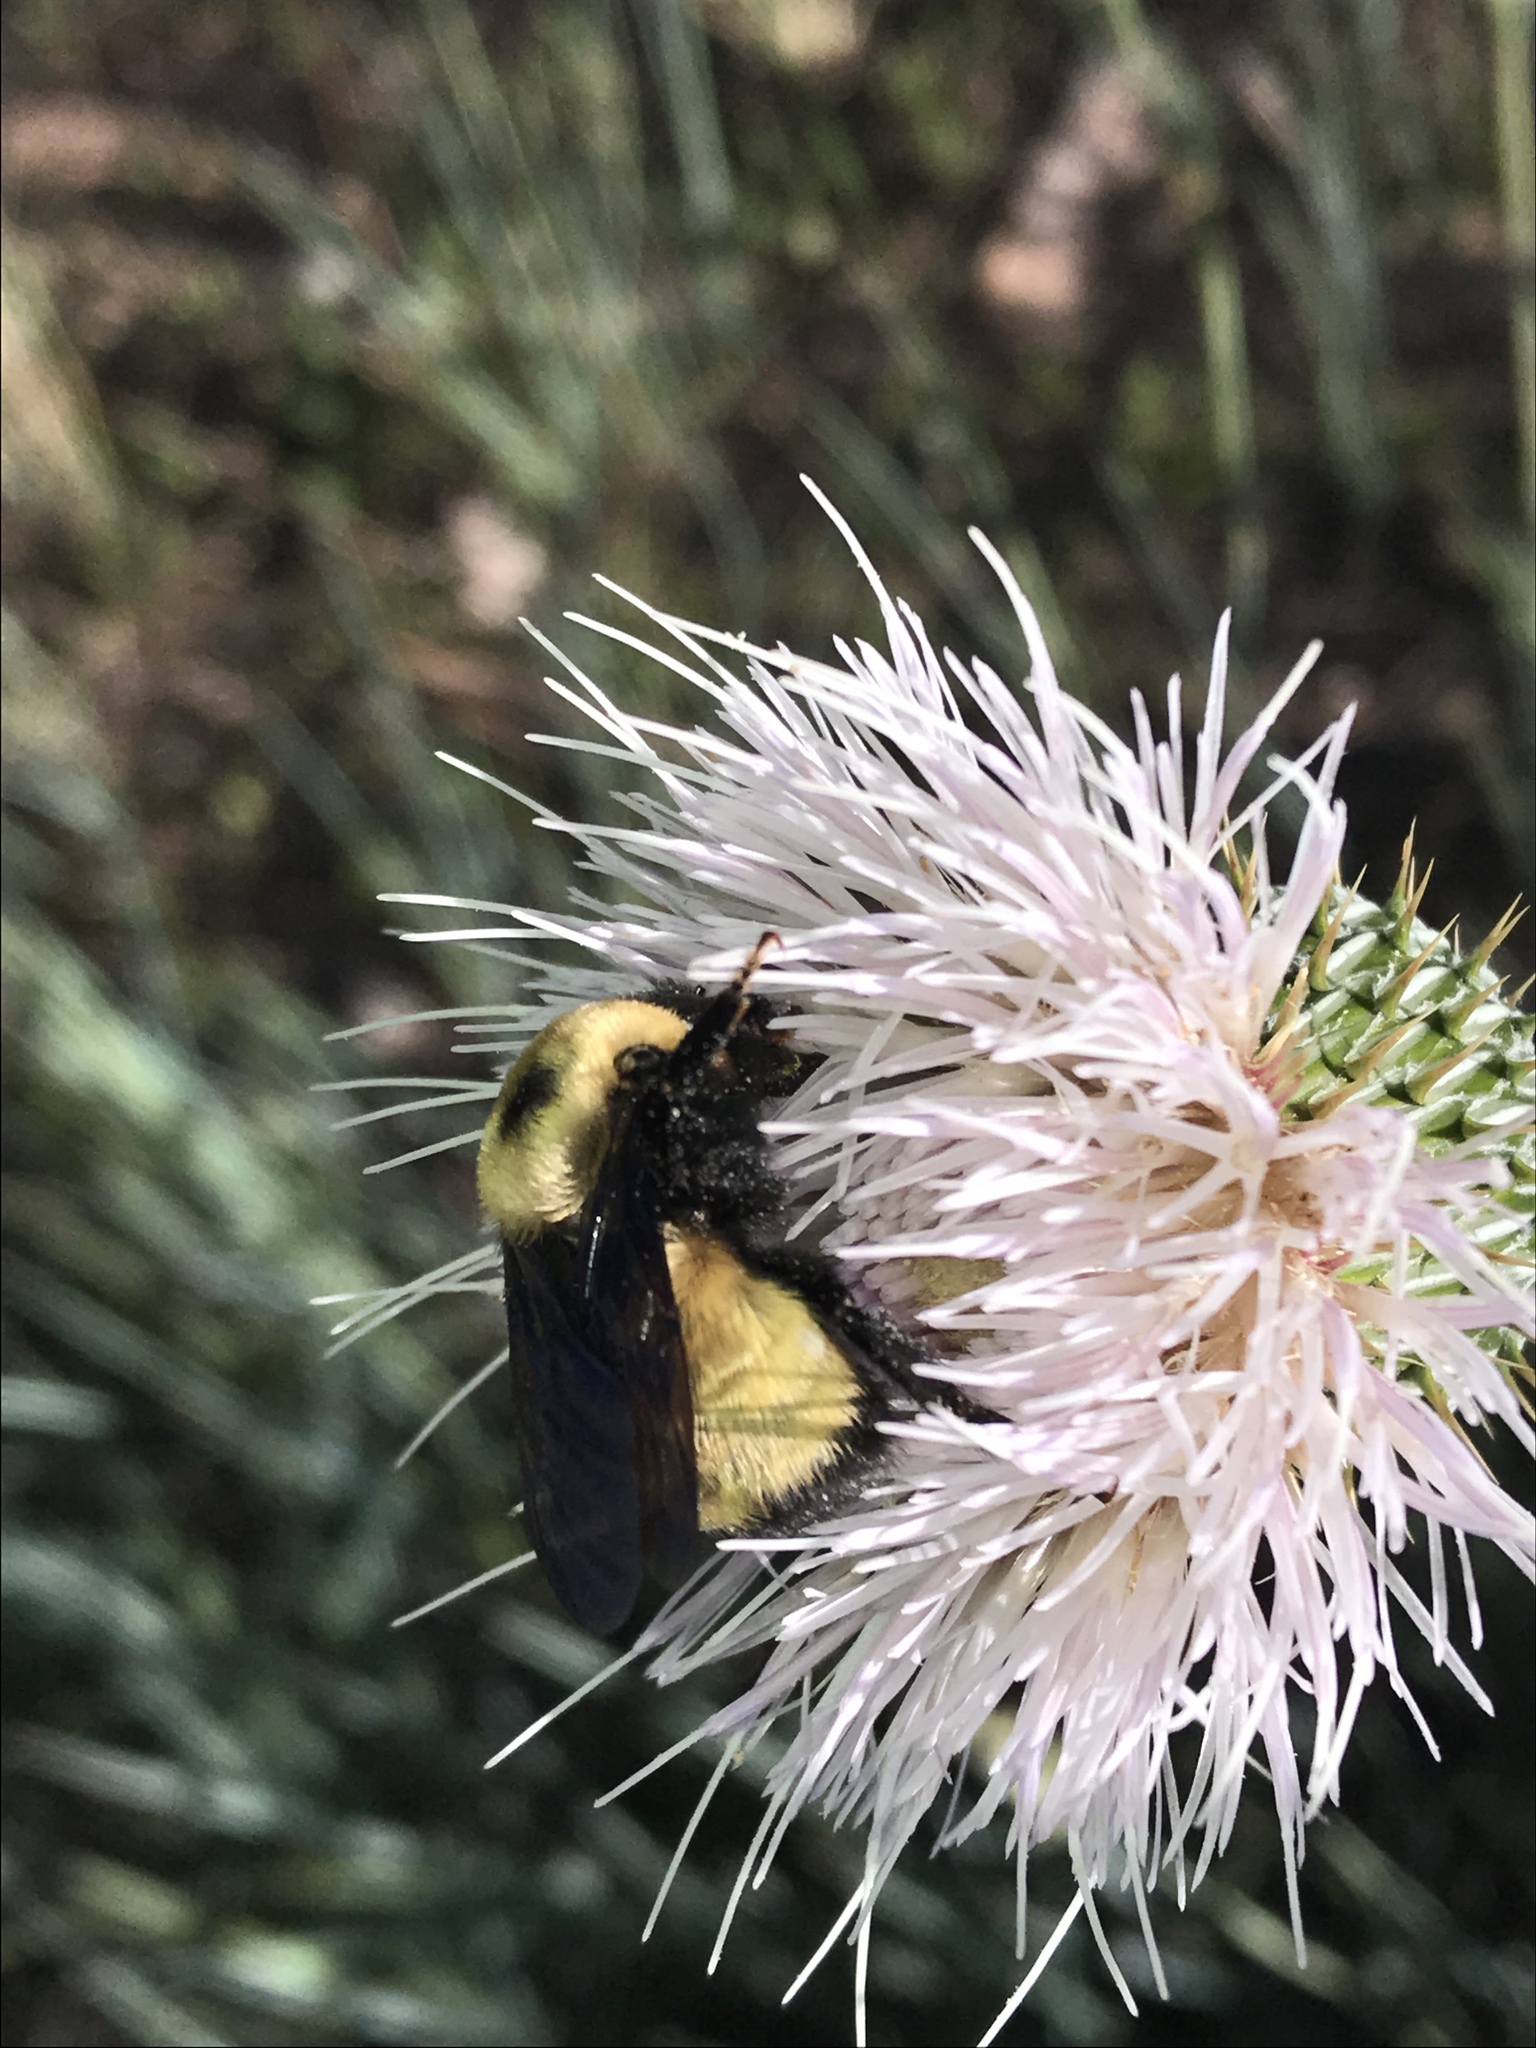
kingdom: Animalia
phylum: Arthropoda
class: Insecta
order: Hymenoptera
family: Apidae
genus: Bombus
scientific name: Bombus nevadensis
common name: Nevada bumble bee
